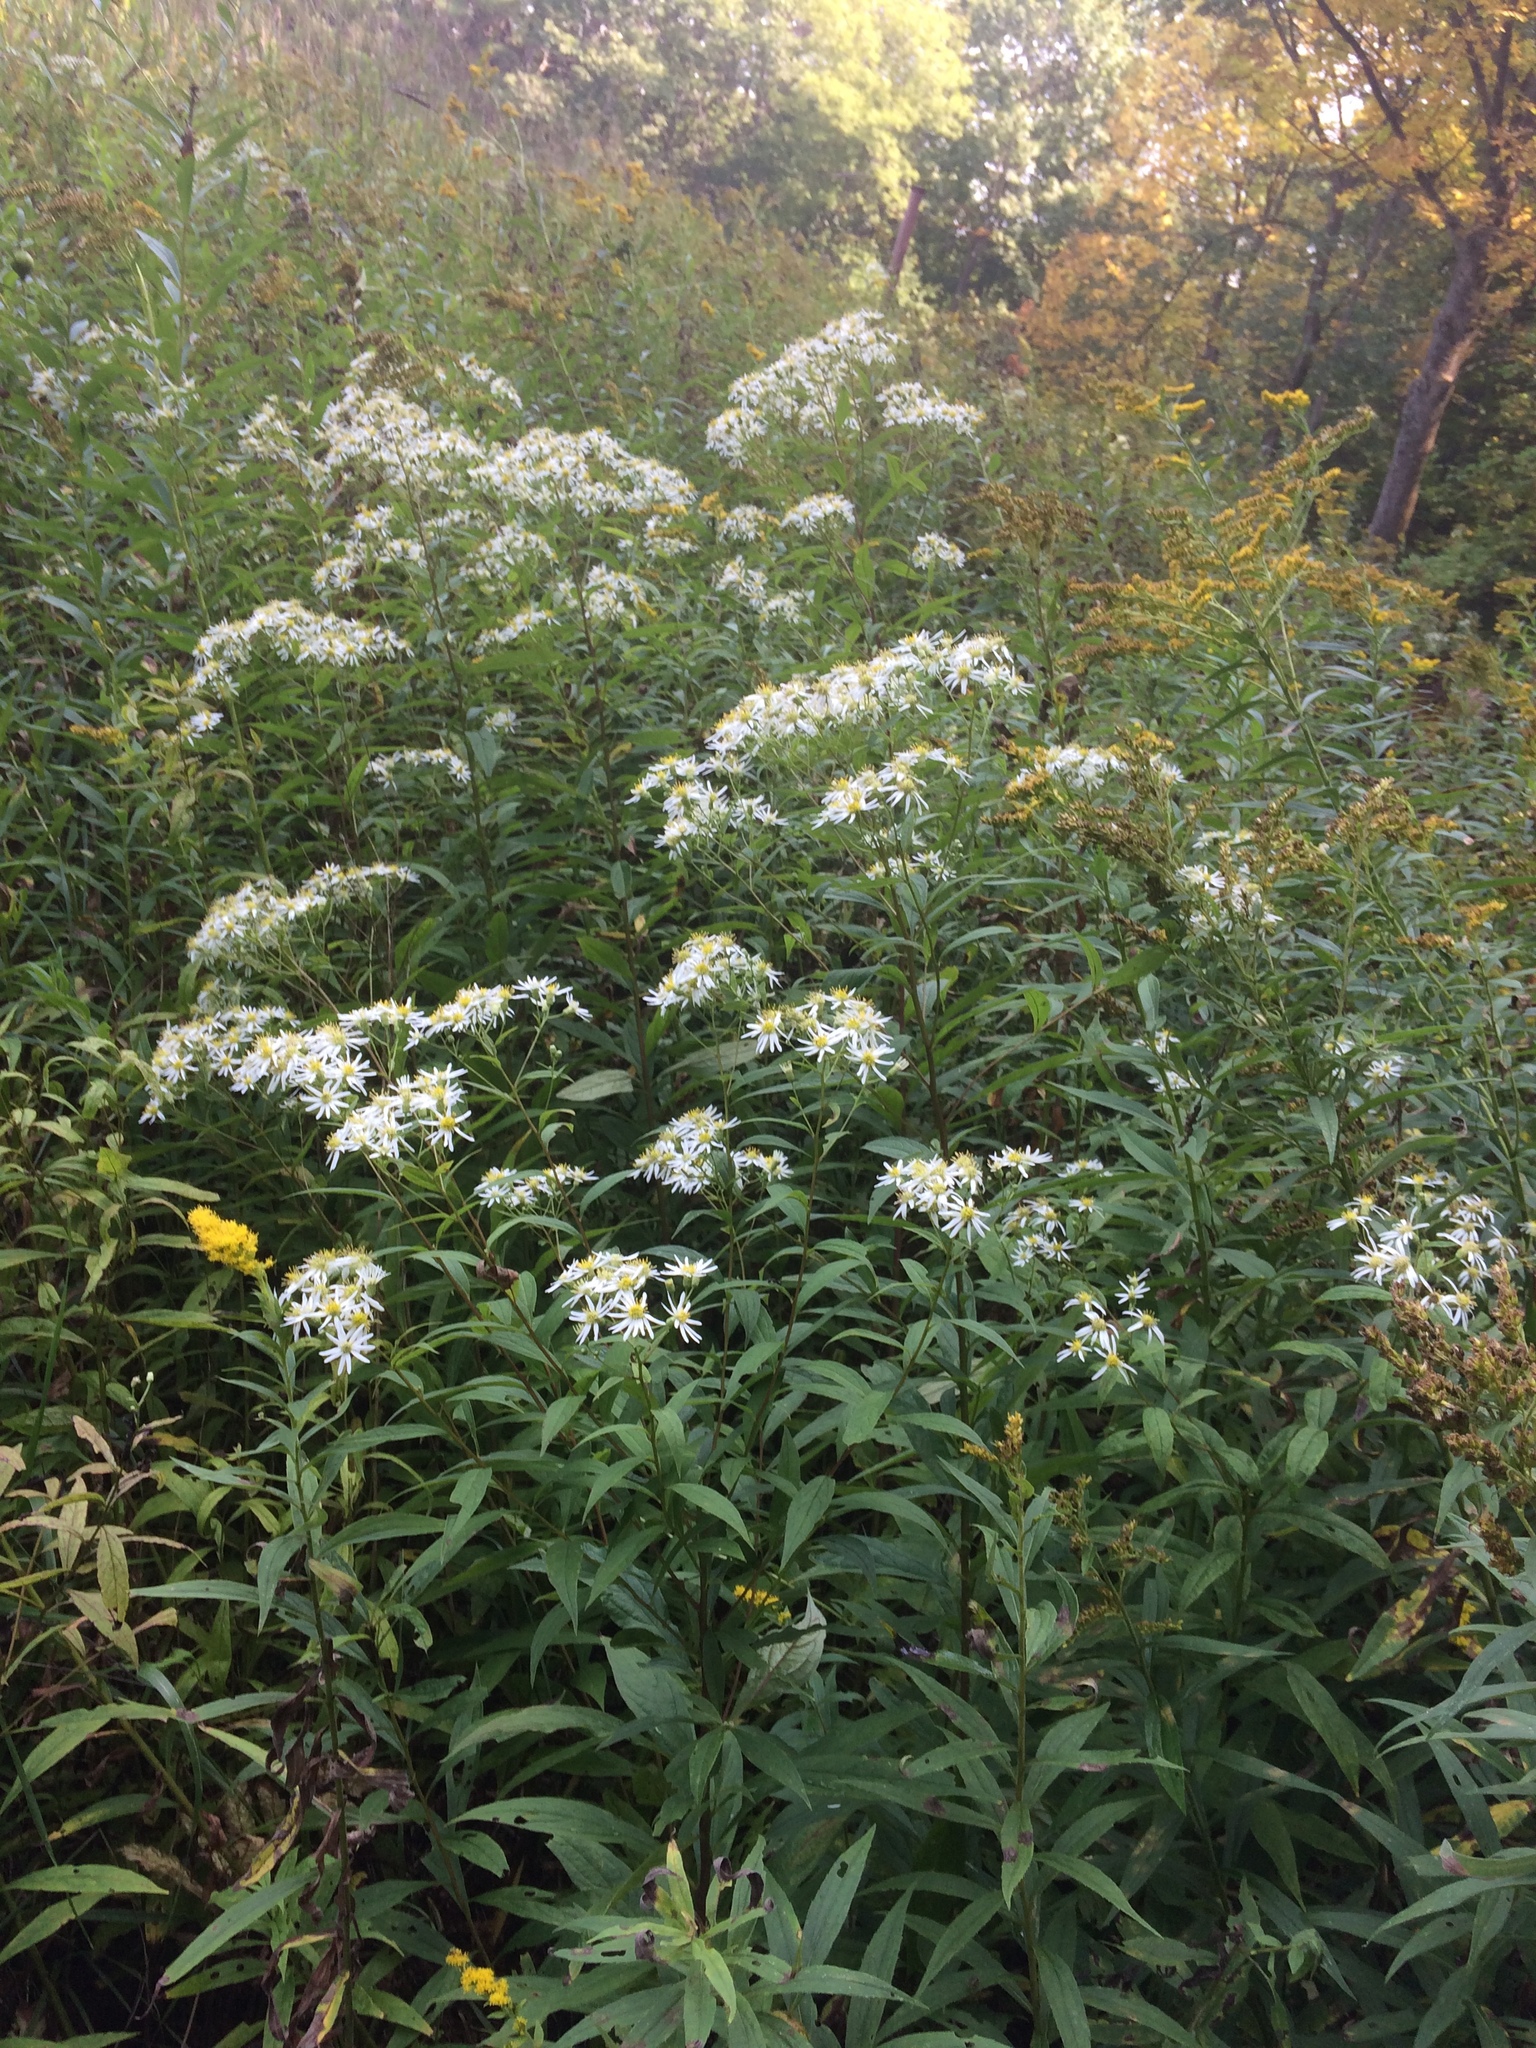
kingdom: Plantae
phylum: Tracheophyta
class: Magnoliopsida
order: Asterales
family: Asteraceae
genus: Doellingeria
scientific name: Doellingeria umbellata
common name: Flat-top white aster
